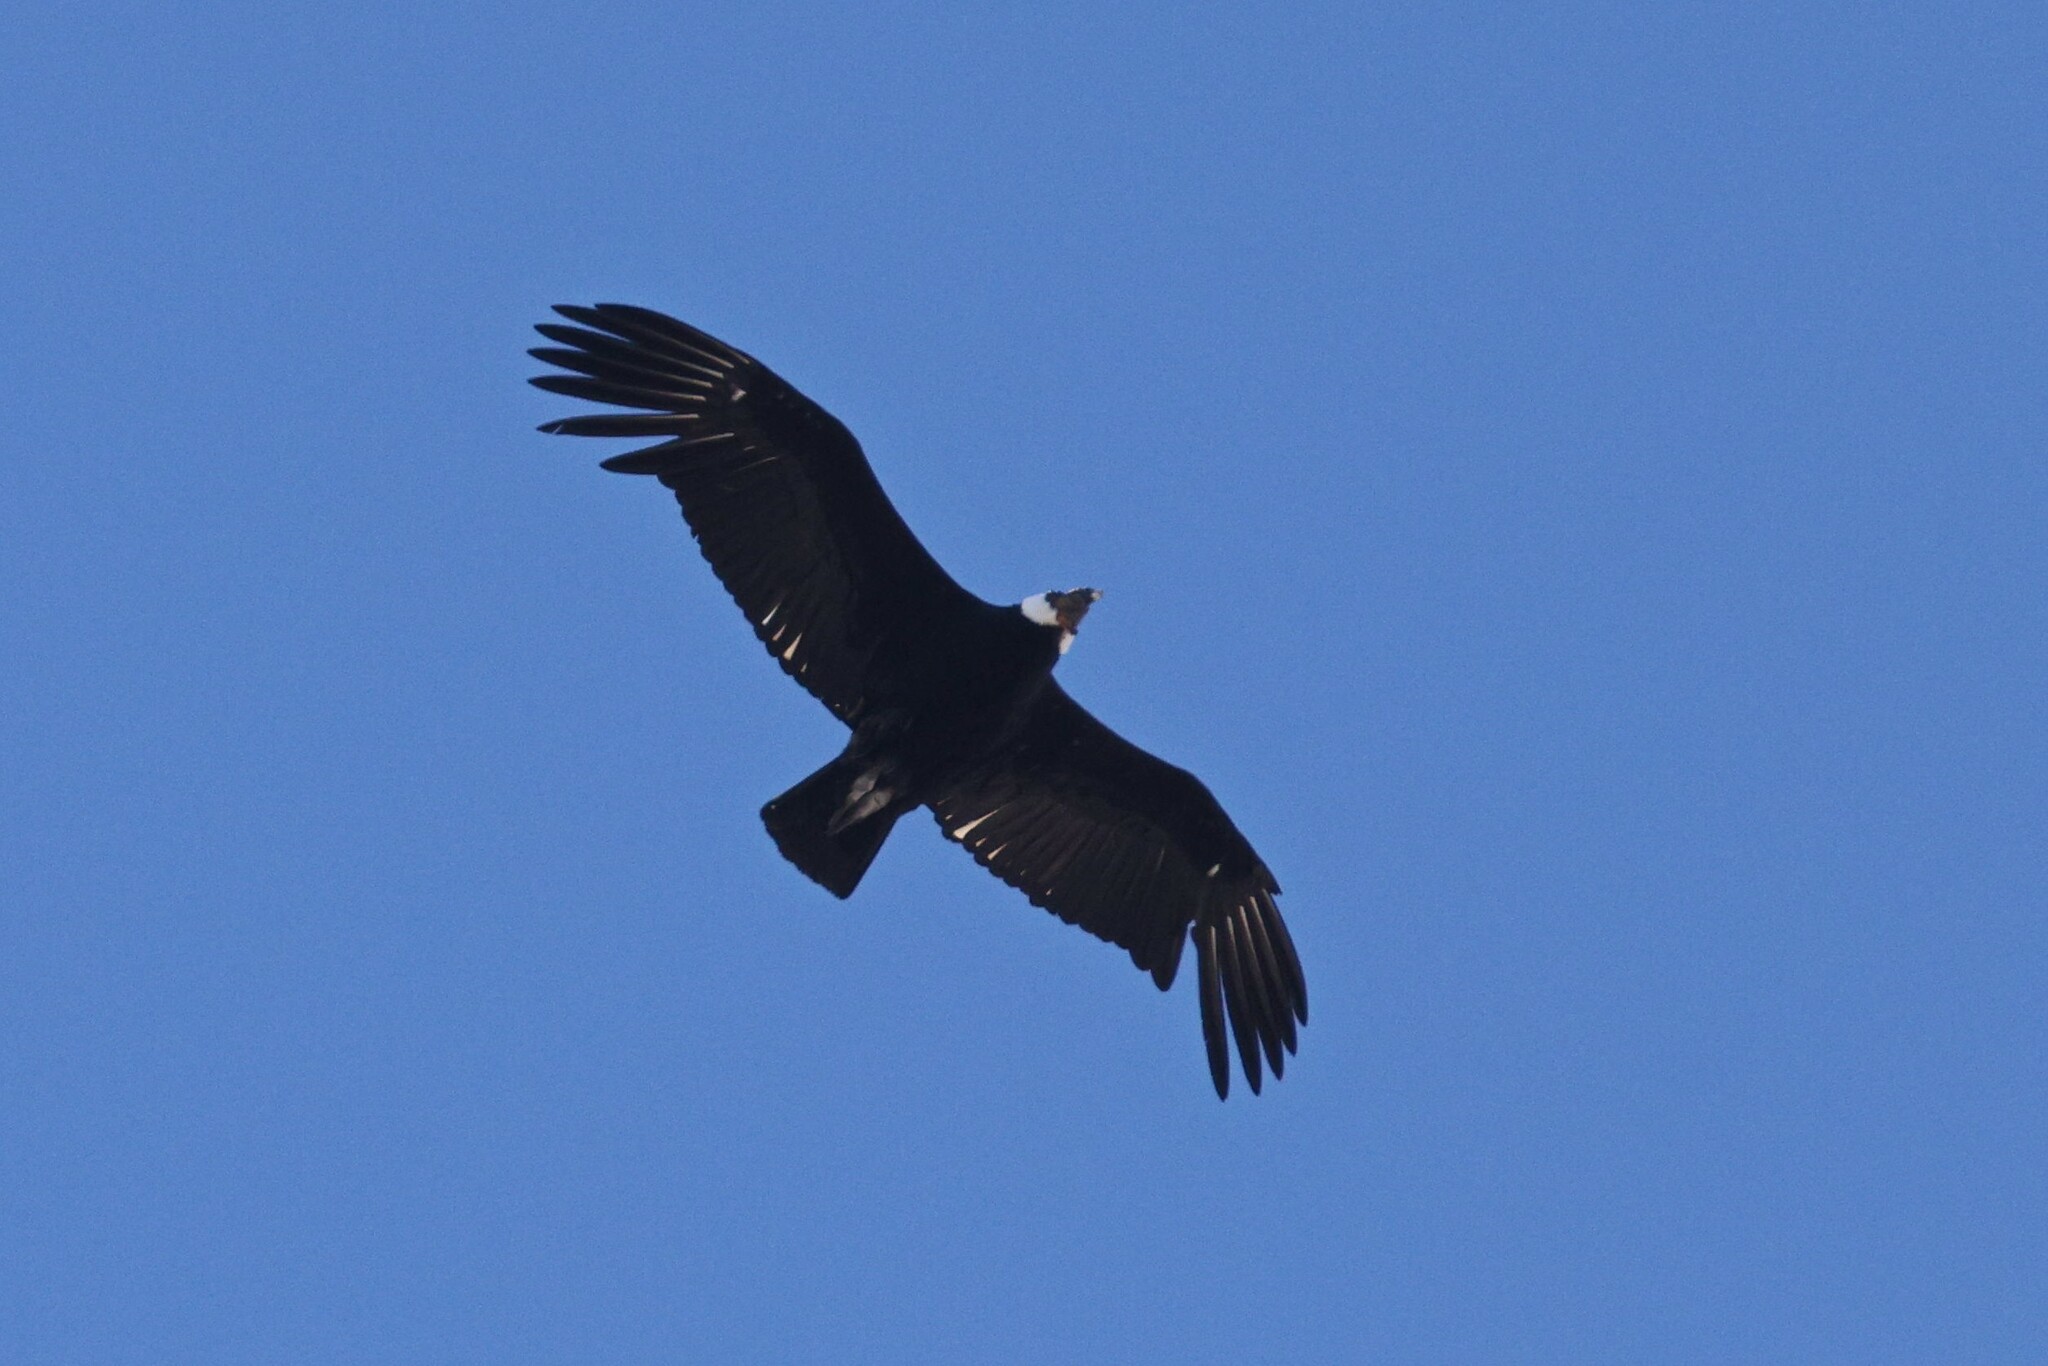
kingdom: Animalia
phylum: Chordata
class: Aves
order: Accipitriformes
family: Cathartidae
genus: Vultur
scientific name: Vultur gryphus
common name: Andean condor
